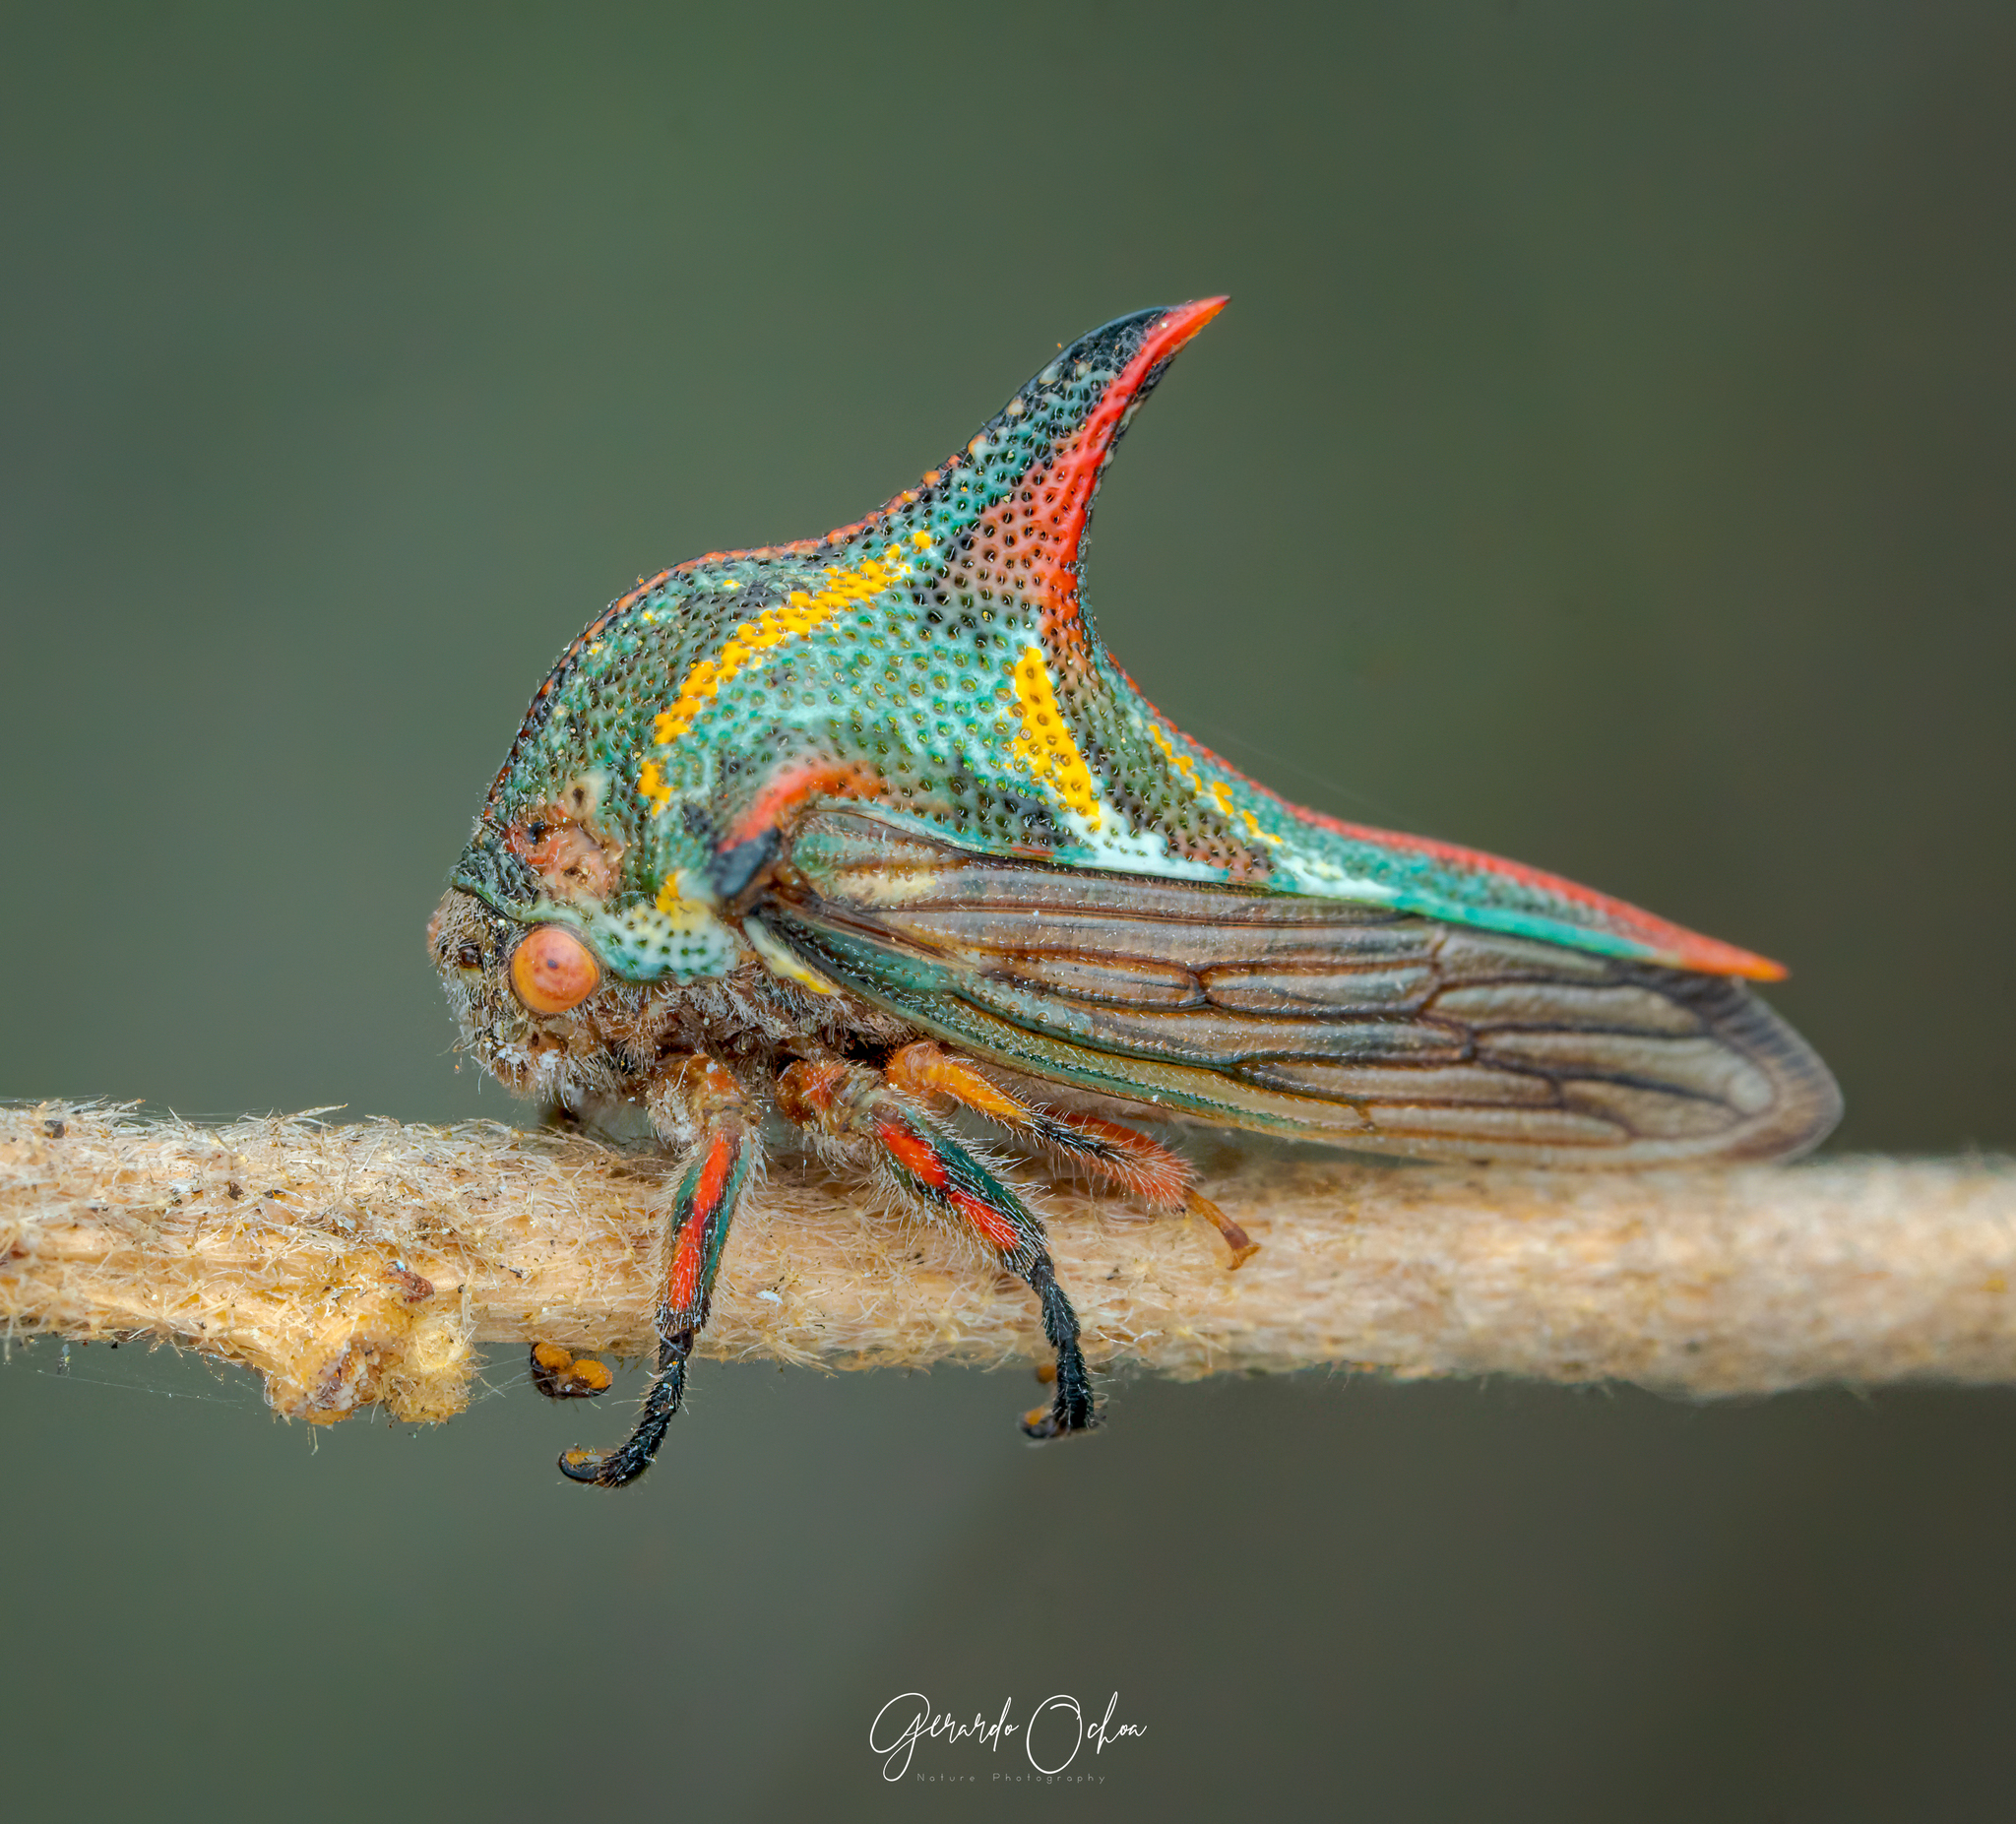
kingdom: Animalia
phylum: Arthropoda
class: Insecta
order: Hemiptera
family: Membracidae
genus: Umbonia
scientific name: Umbonia crassicornis
